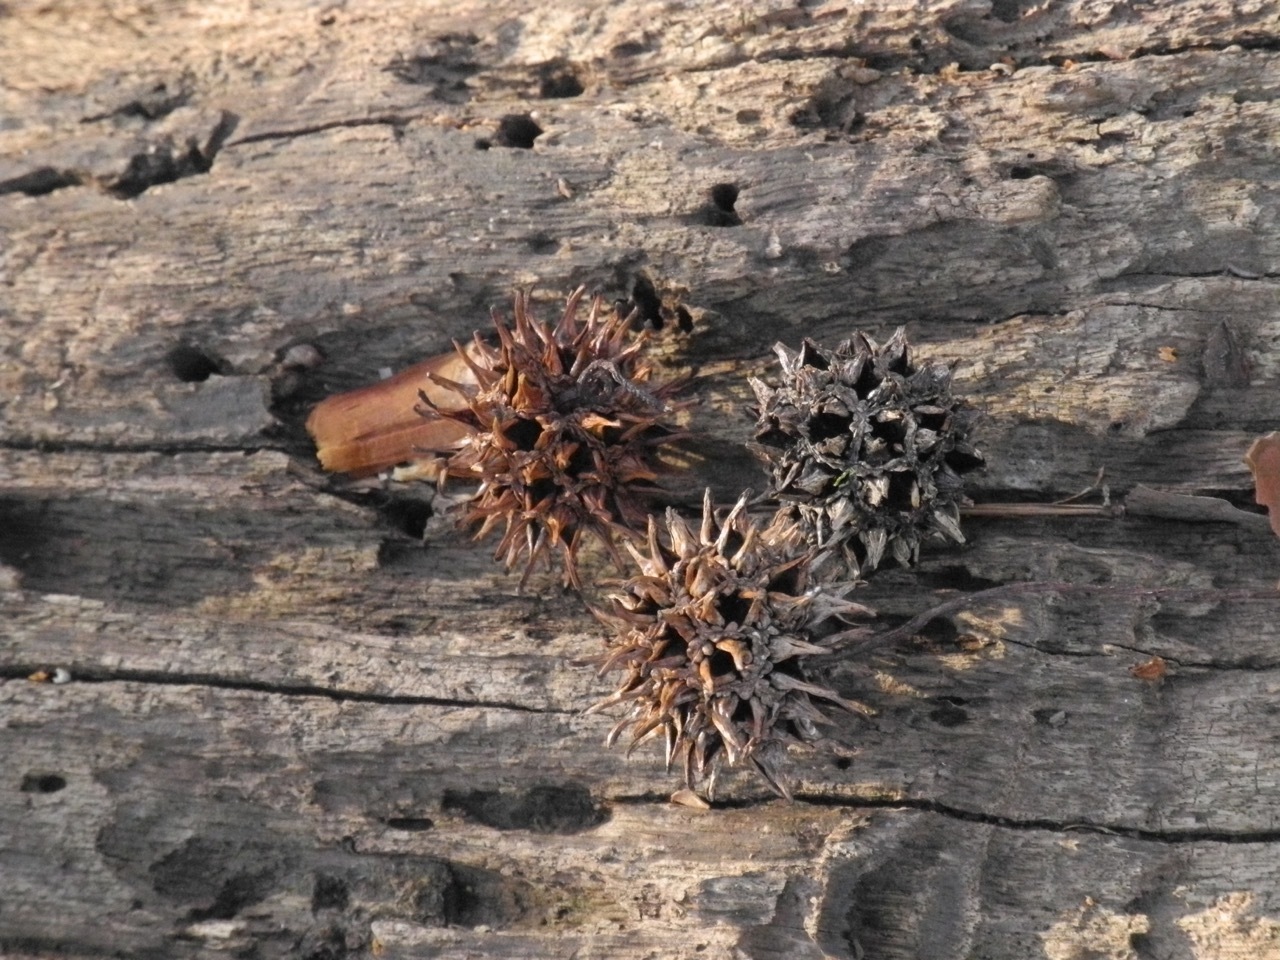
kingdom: Plantae
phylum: Tracheophyta
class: Magnoliopsida
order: Saxifragales
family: Altingiaceae
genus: Liquidambar
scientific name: Liquidambar styraciflua
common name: Sweet gum
